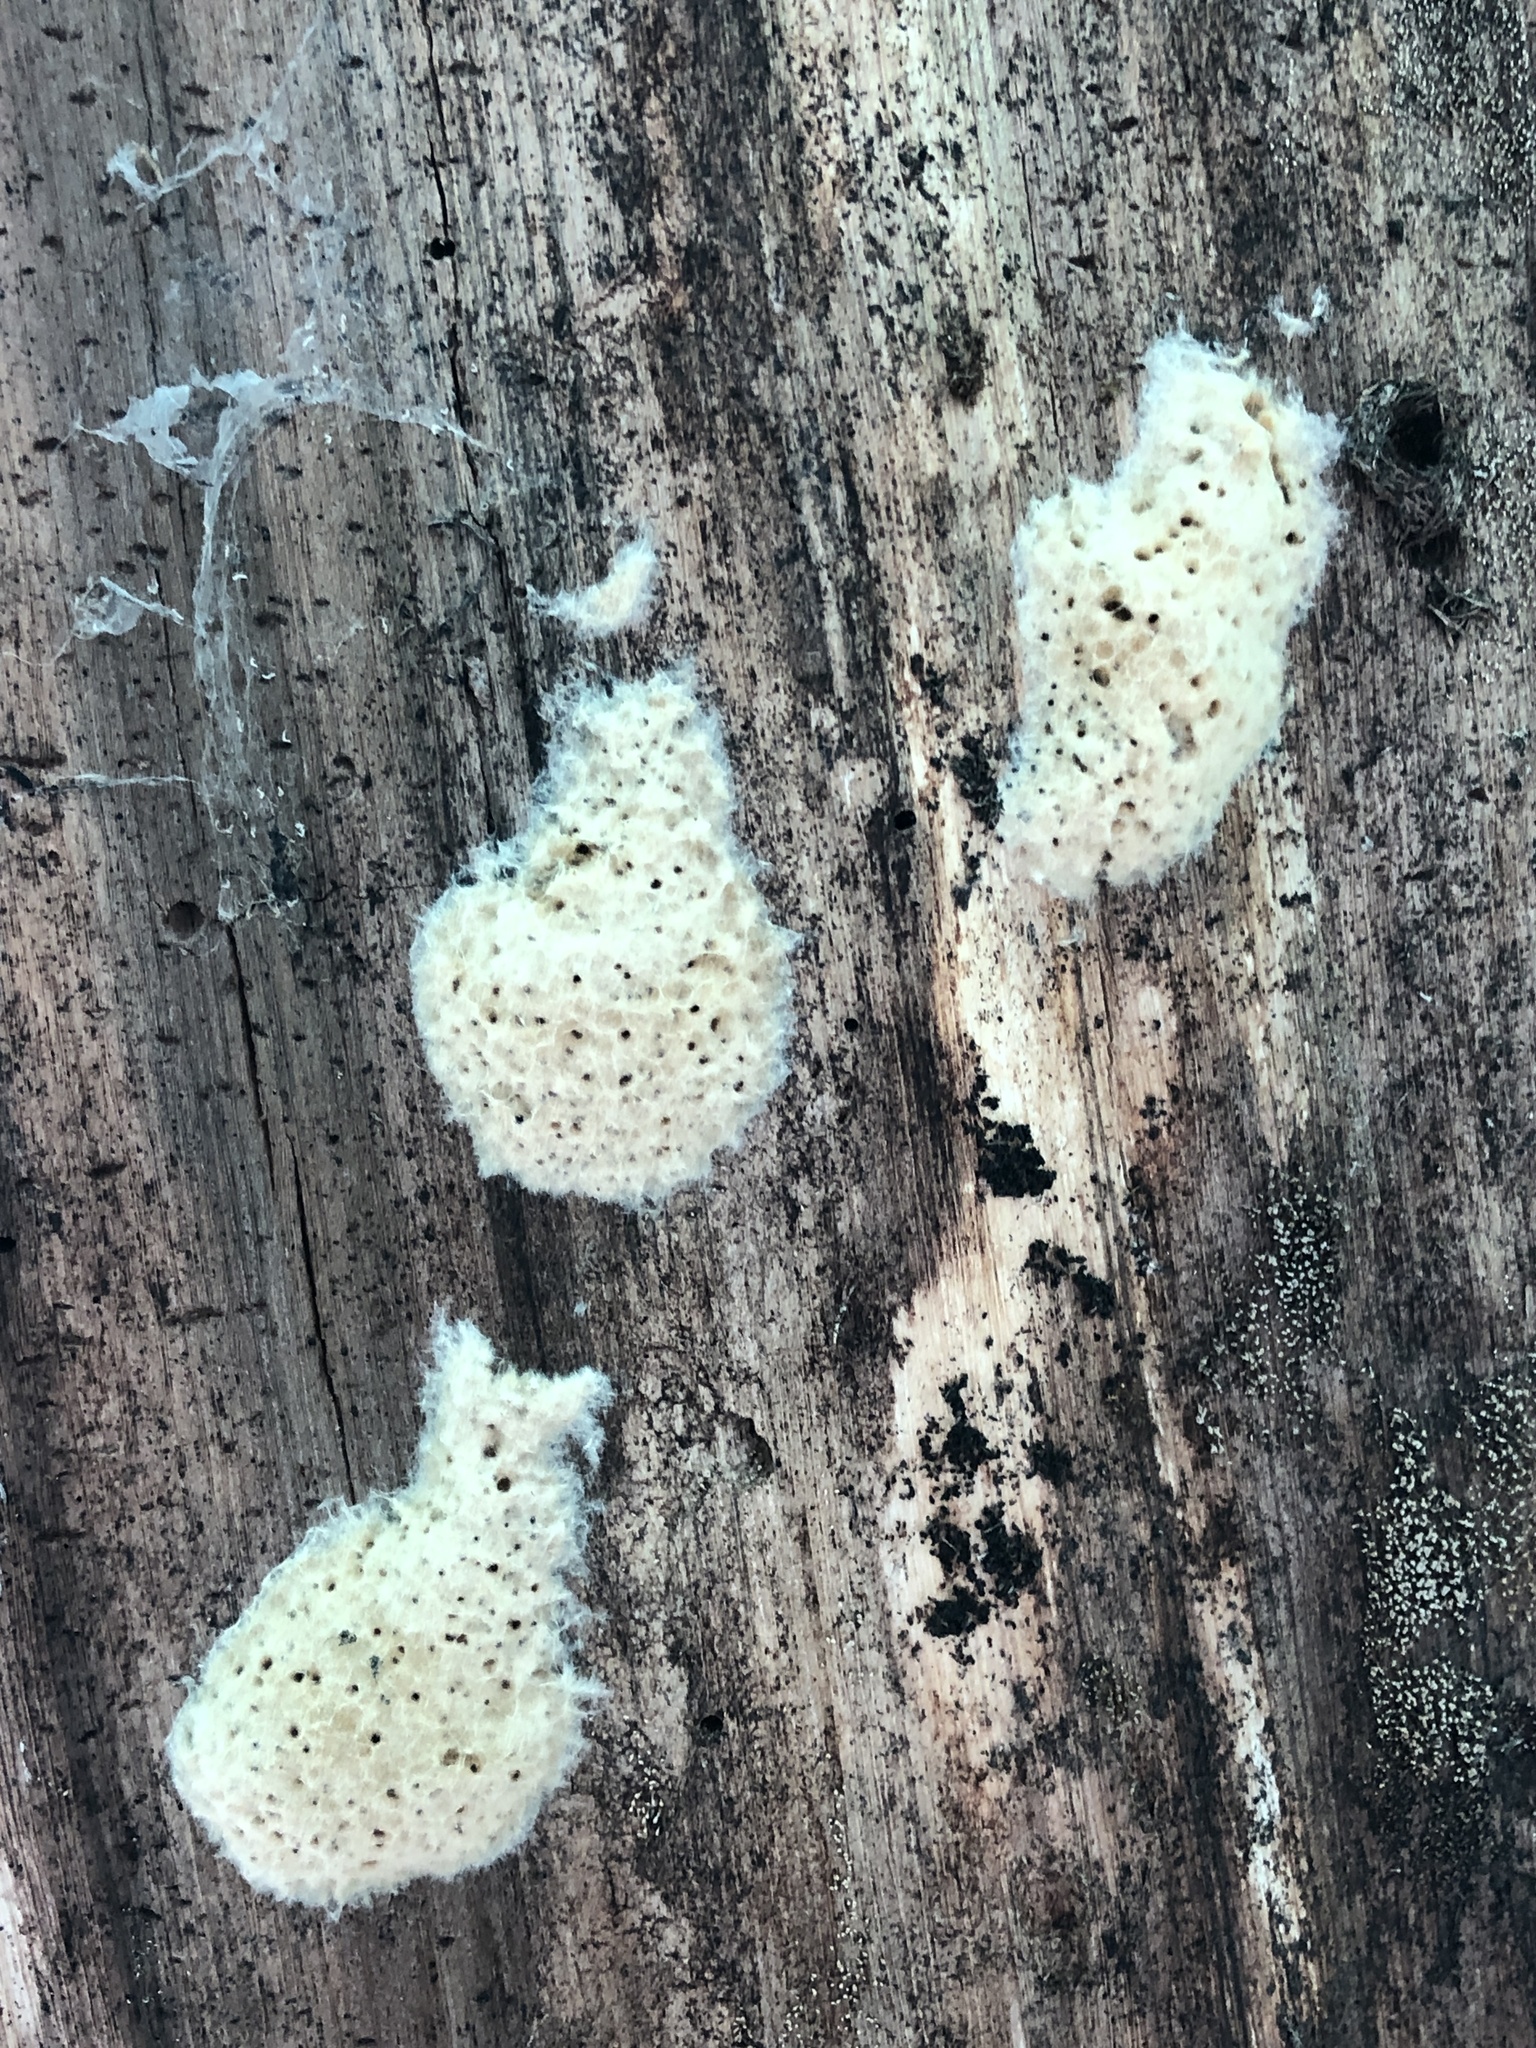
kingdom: Animalia
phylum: Arthropoda
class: Insecta
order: Lepidoptera
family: Erebidae
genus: Lymantria
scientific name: Lymantria dispar
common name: Gypsy moth
